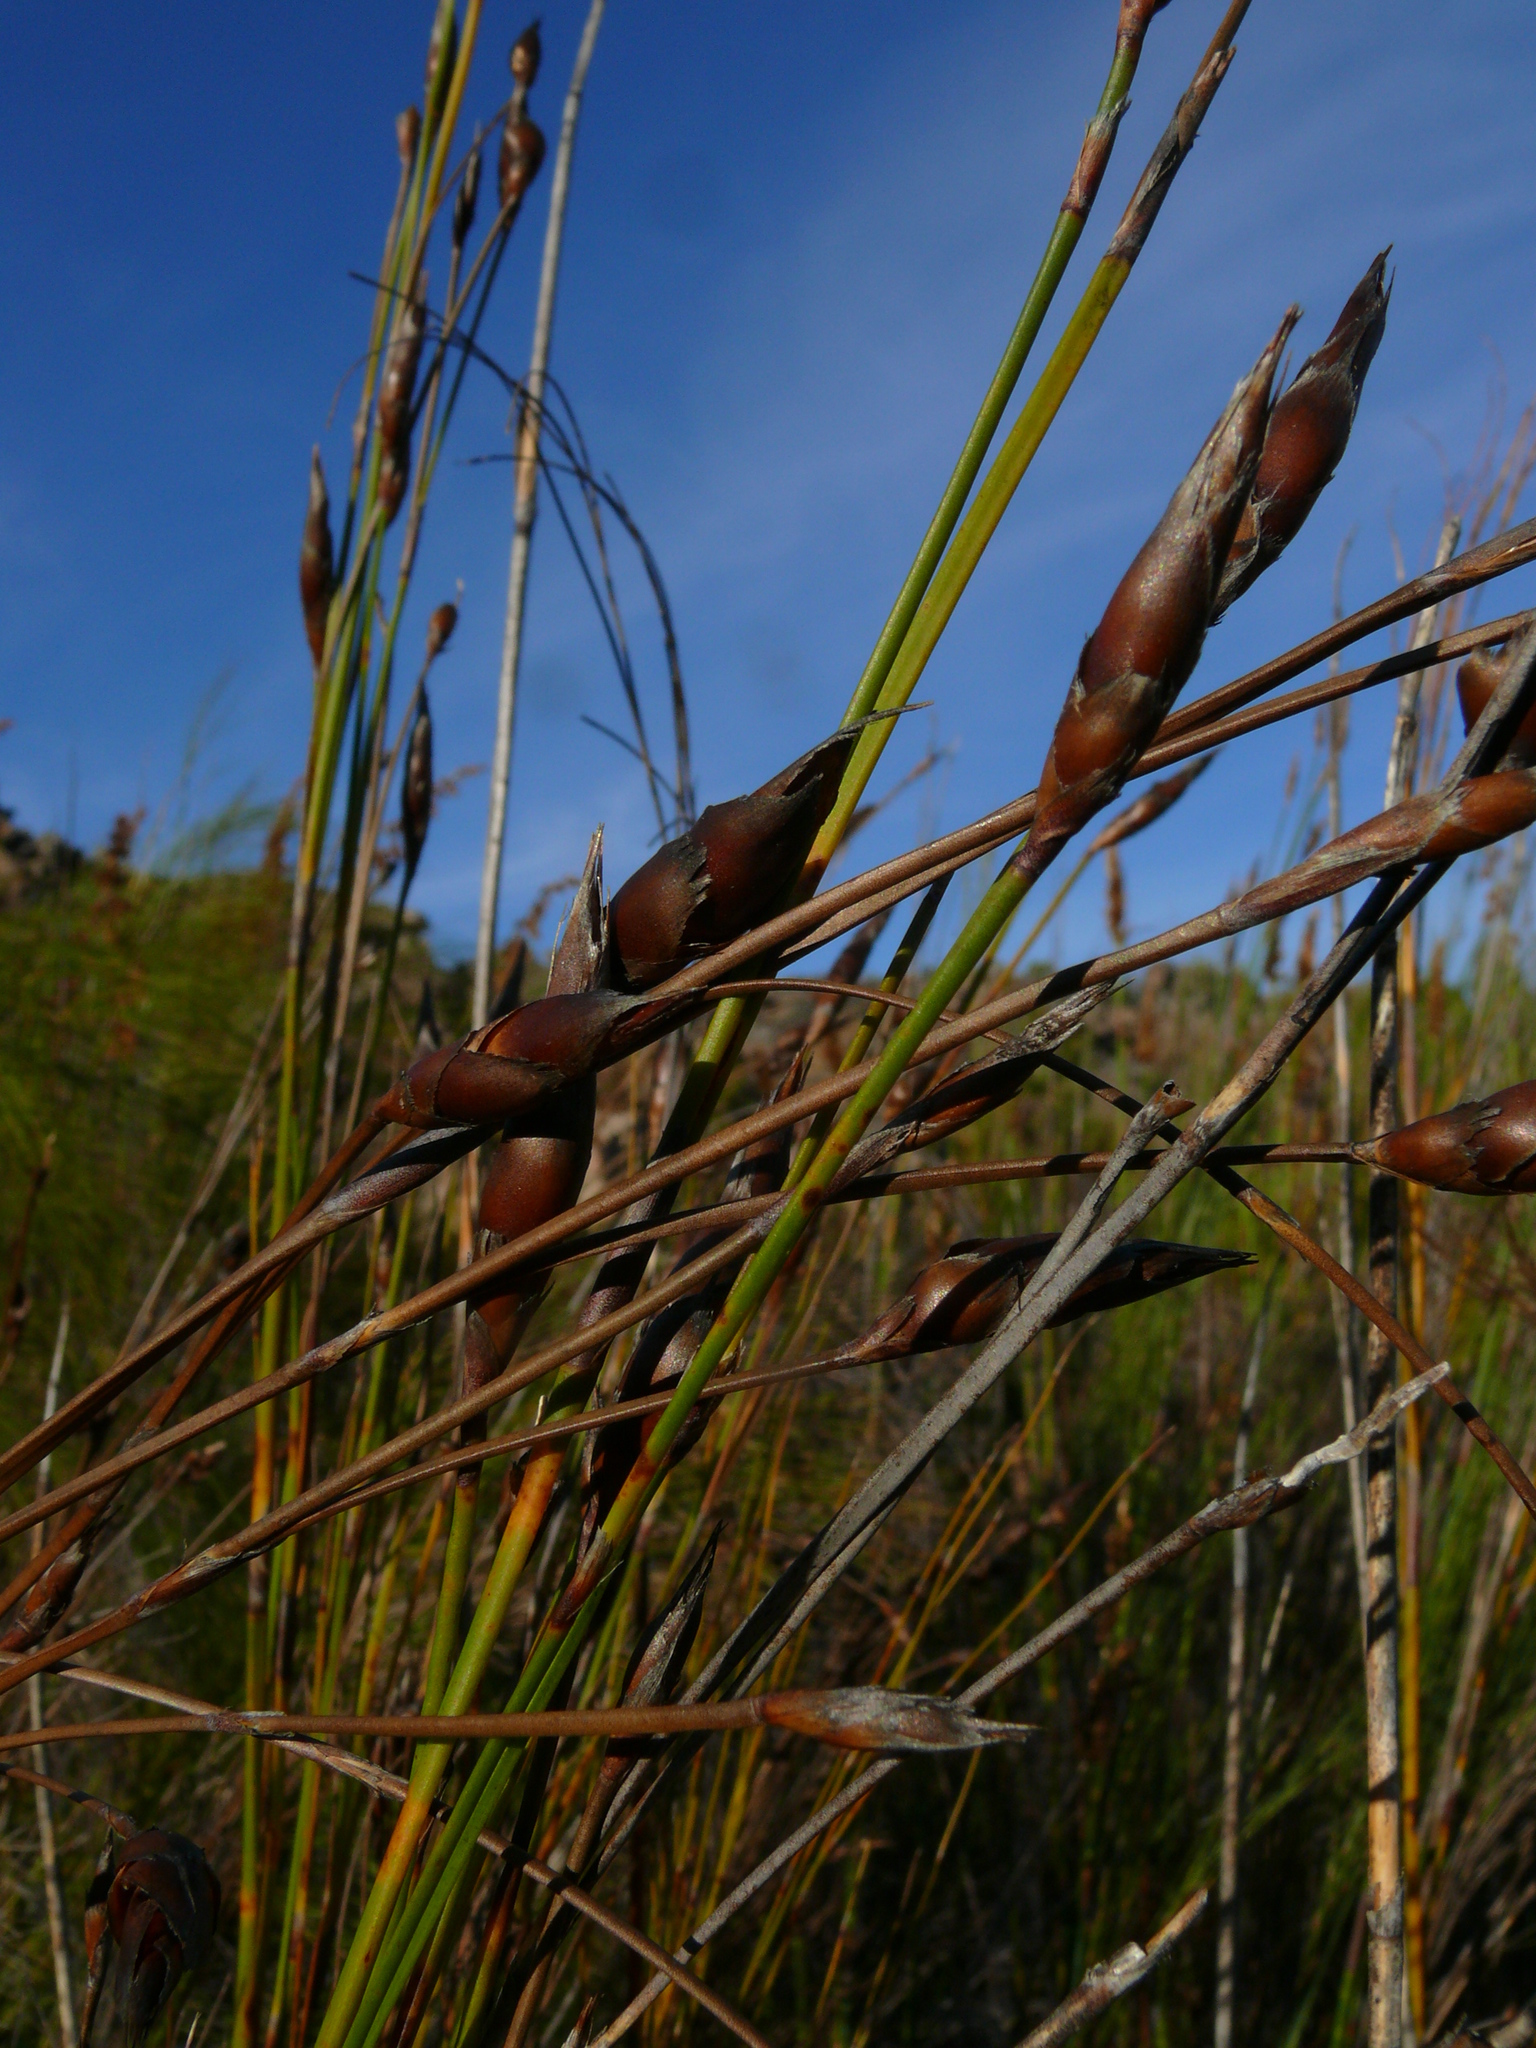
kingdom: Plantae
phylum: Tracheophyta
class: Liliopsida
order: Poales
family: Restionaceae
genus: Cannomois
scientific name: Cannomois robusta
